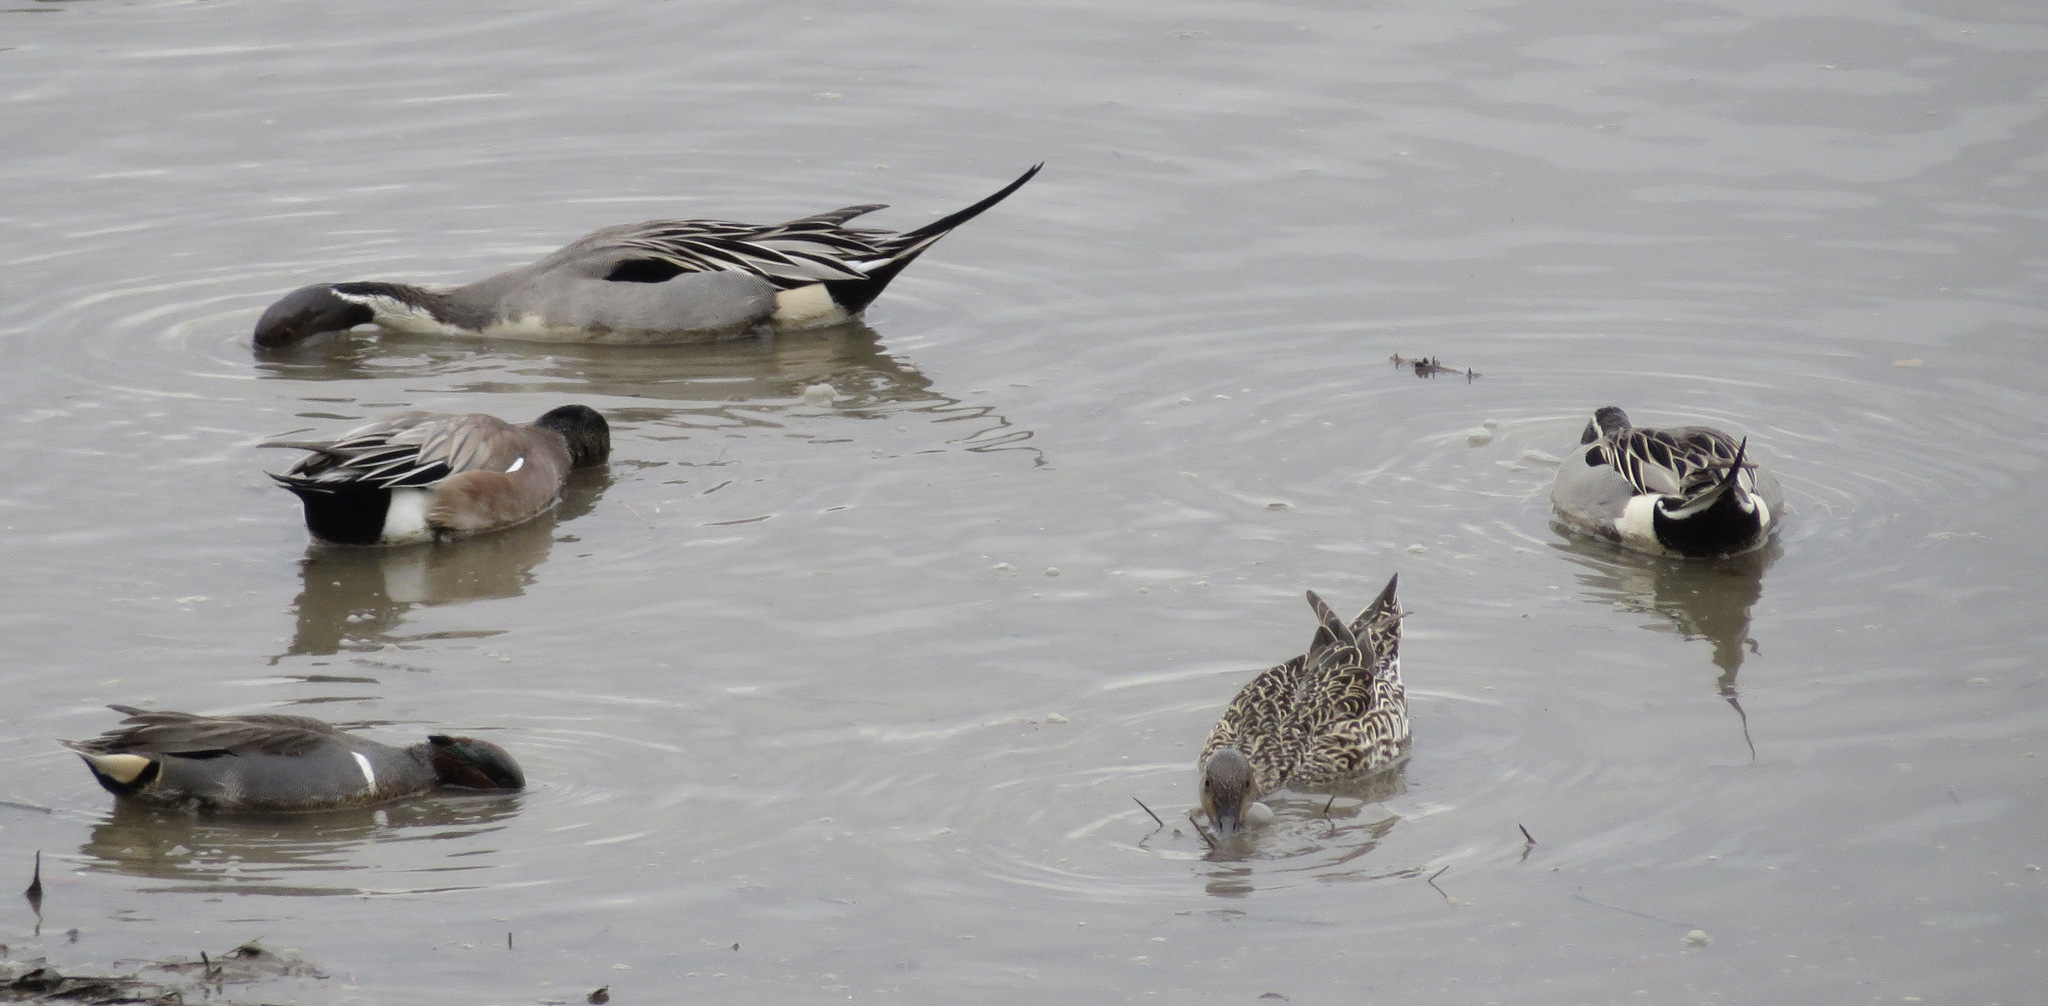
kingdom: Animalia
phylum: Chordata
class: Aves
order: Anseriformes
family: Anatidae
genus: Anas
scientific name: Anas acuta
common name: Northern pintail
